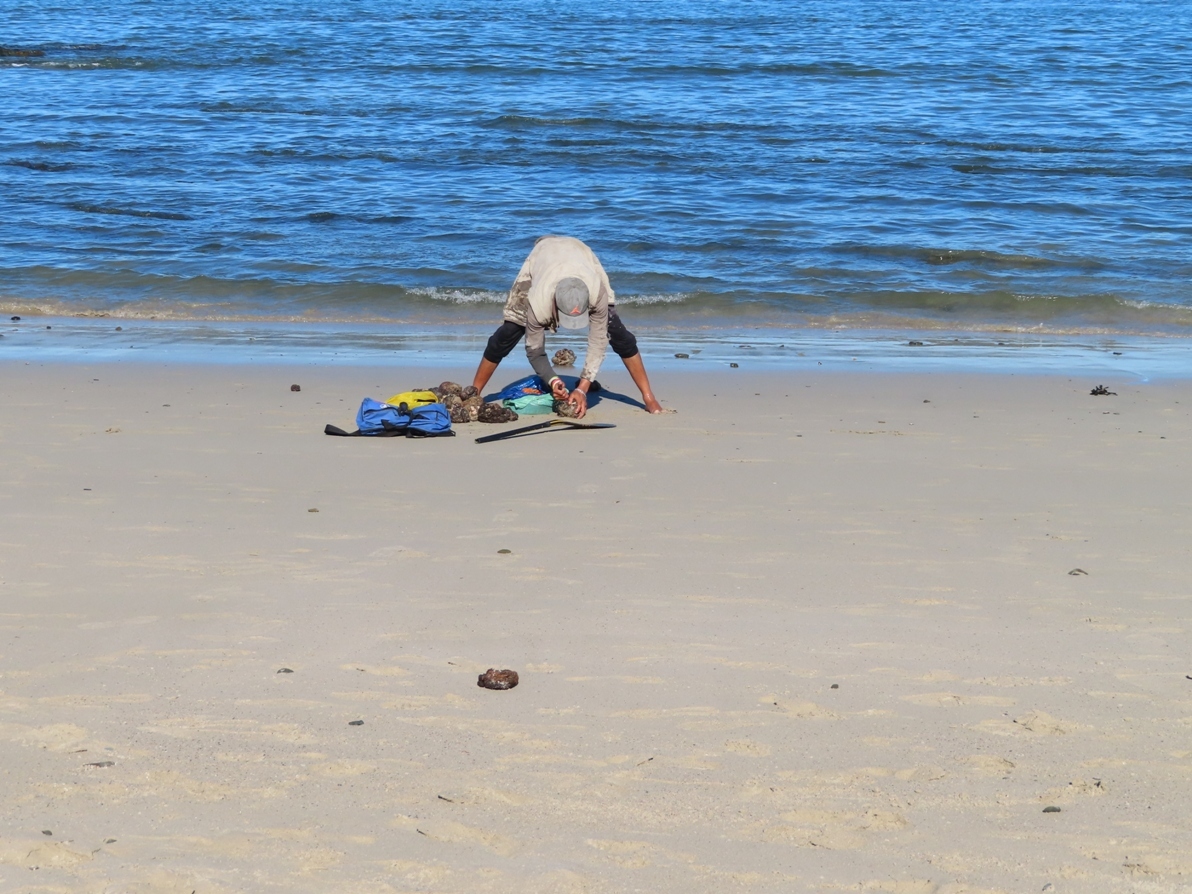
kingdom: Animalia
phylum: Chordata
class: Ascidiacea
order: Stolidobranchia
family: Pyuridae
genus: Pyura
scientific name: Pyura stolonifera
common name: Red bait
